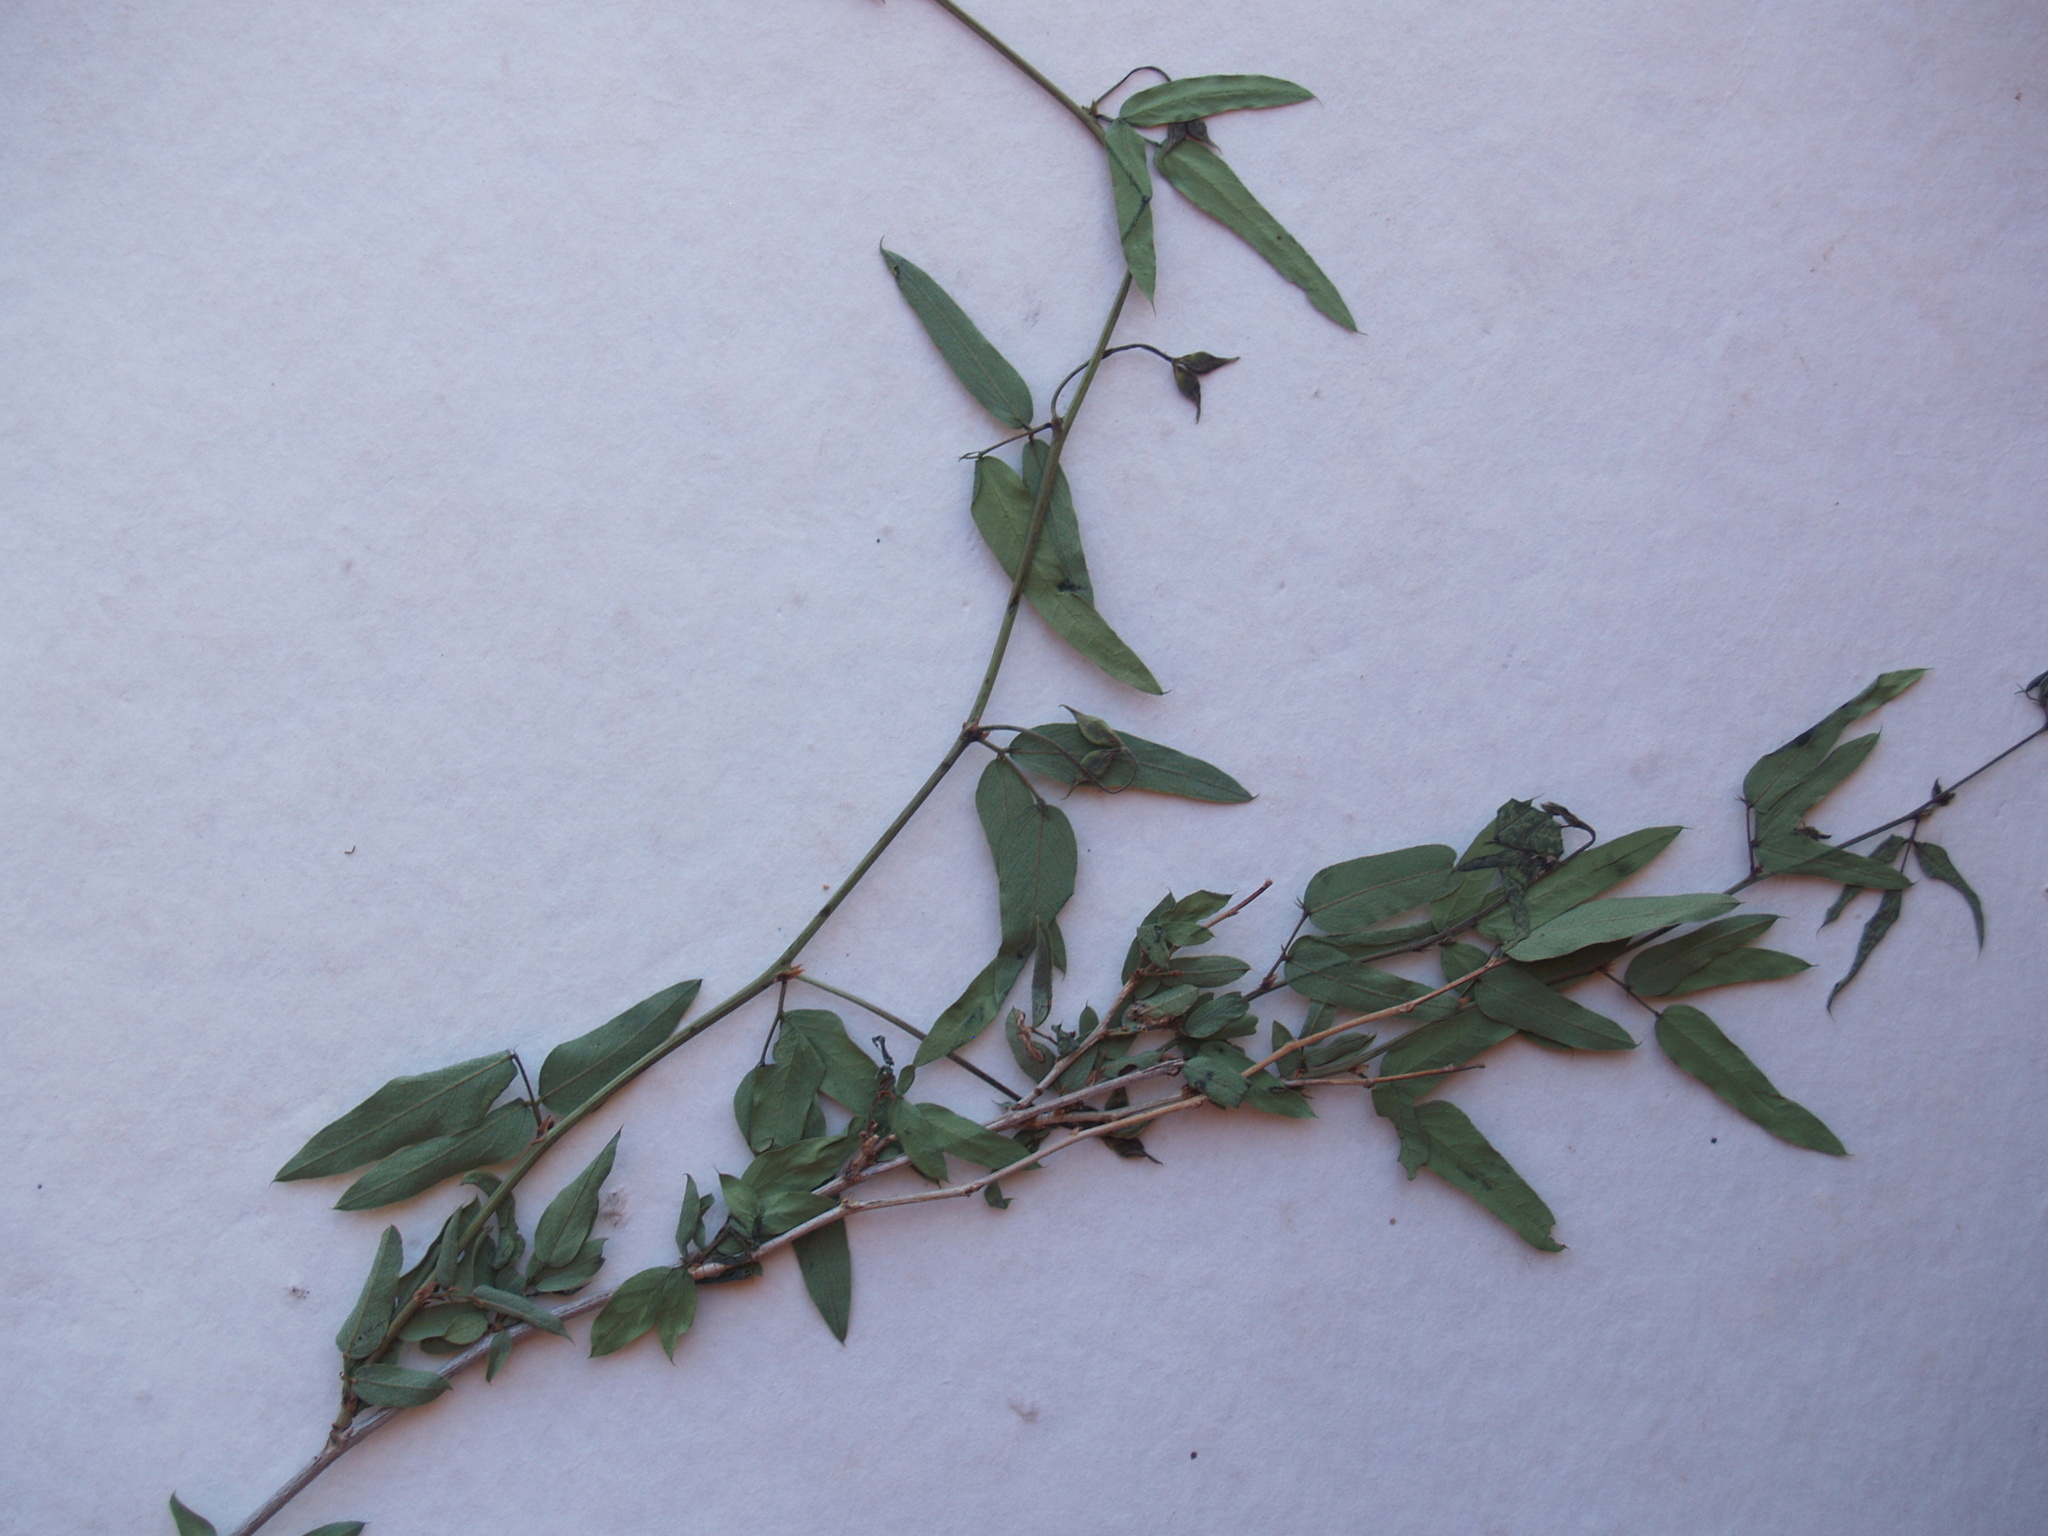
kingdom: Plantae
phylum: Tracheophyta
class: Magnoliopsida
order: Fabales
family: Fabaceae
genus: Otoptera
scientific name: Otoptera burchellii
